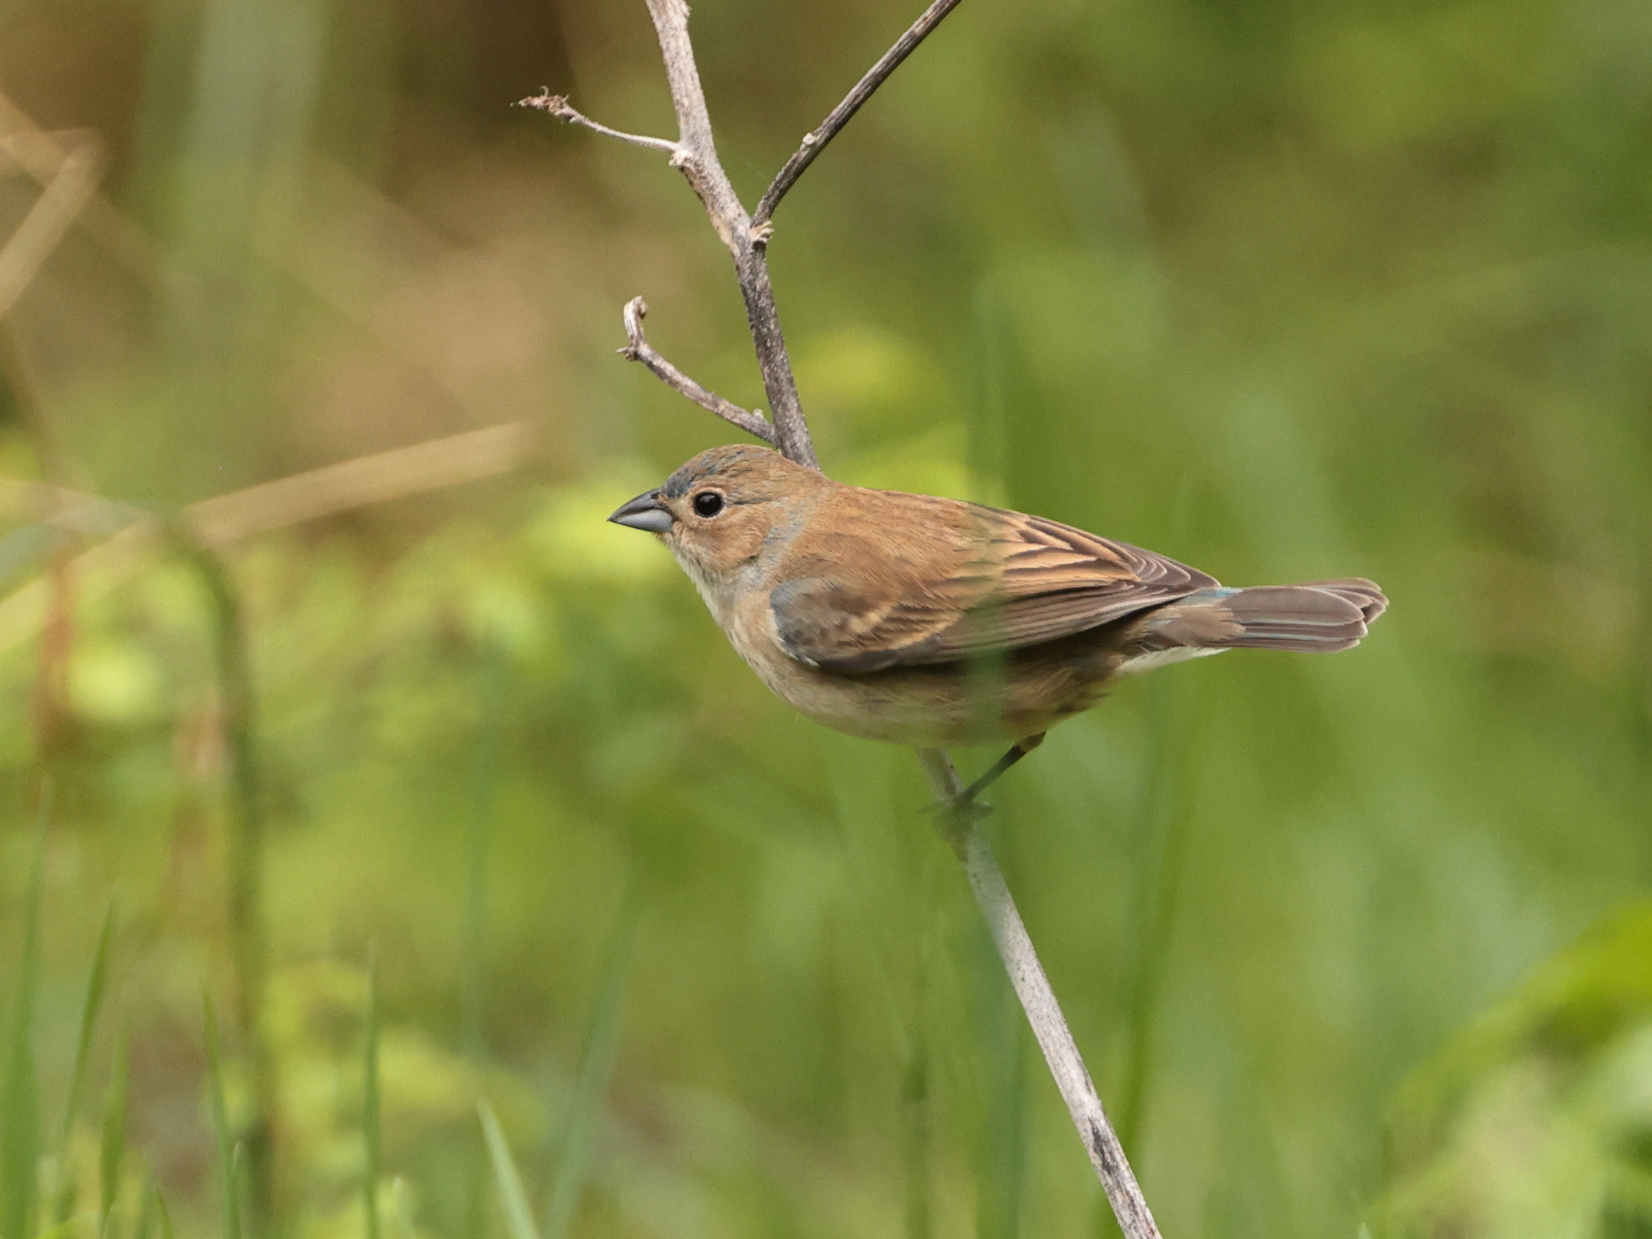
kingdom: Animalia
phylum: Chordata
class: Aves
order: Passeriformes
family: Cardinalidae
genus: Passerina
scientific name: Passerina cyanea
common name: Indigo bunting
